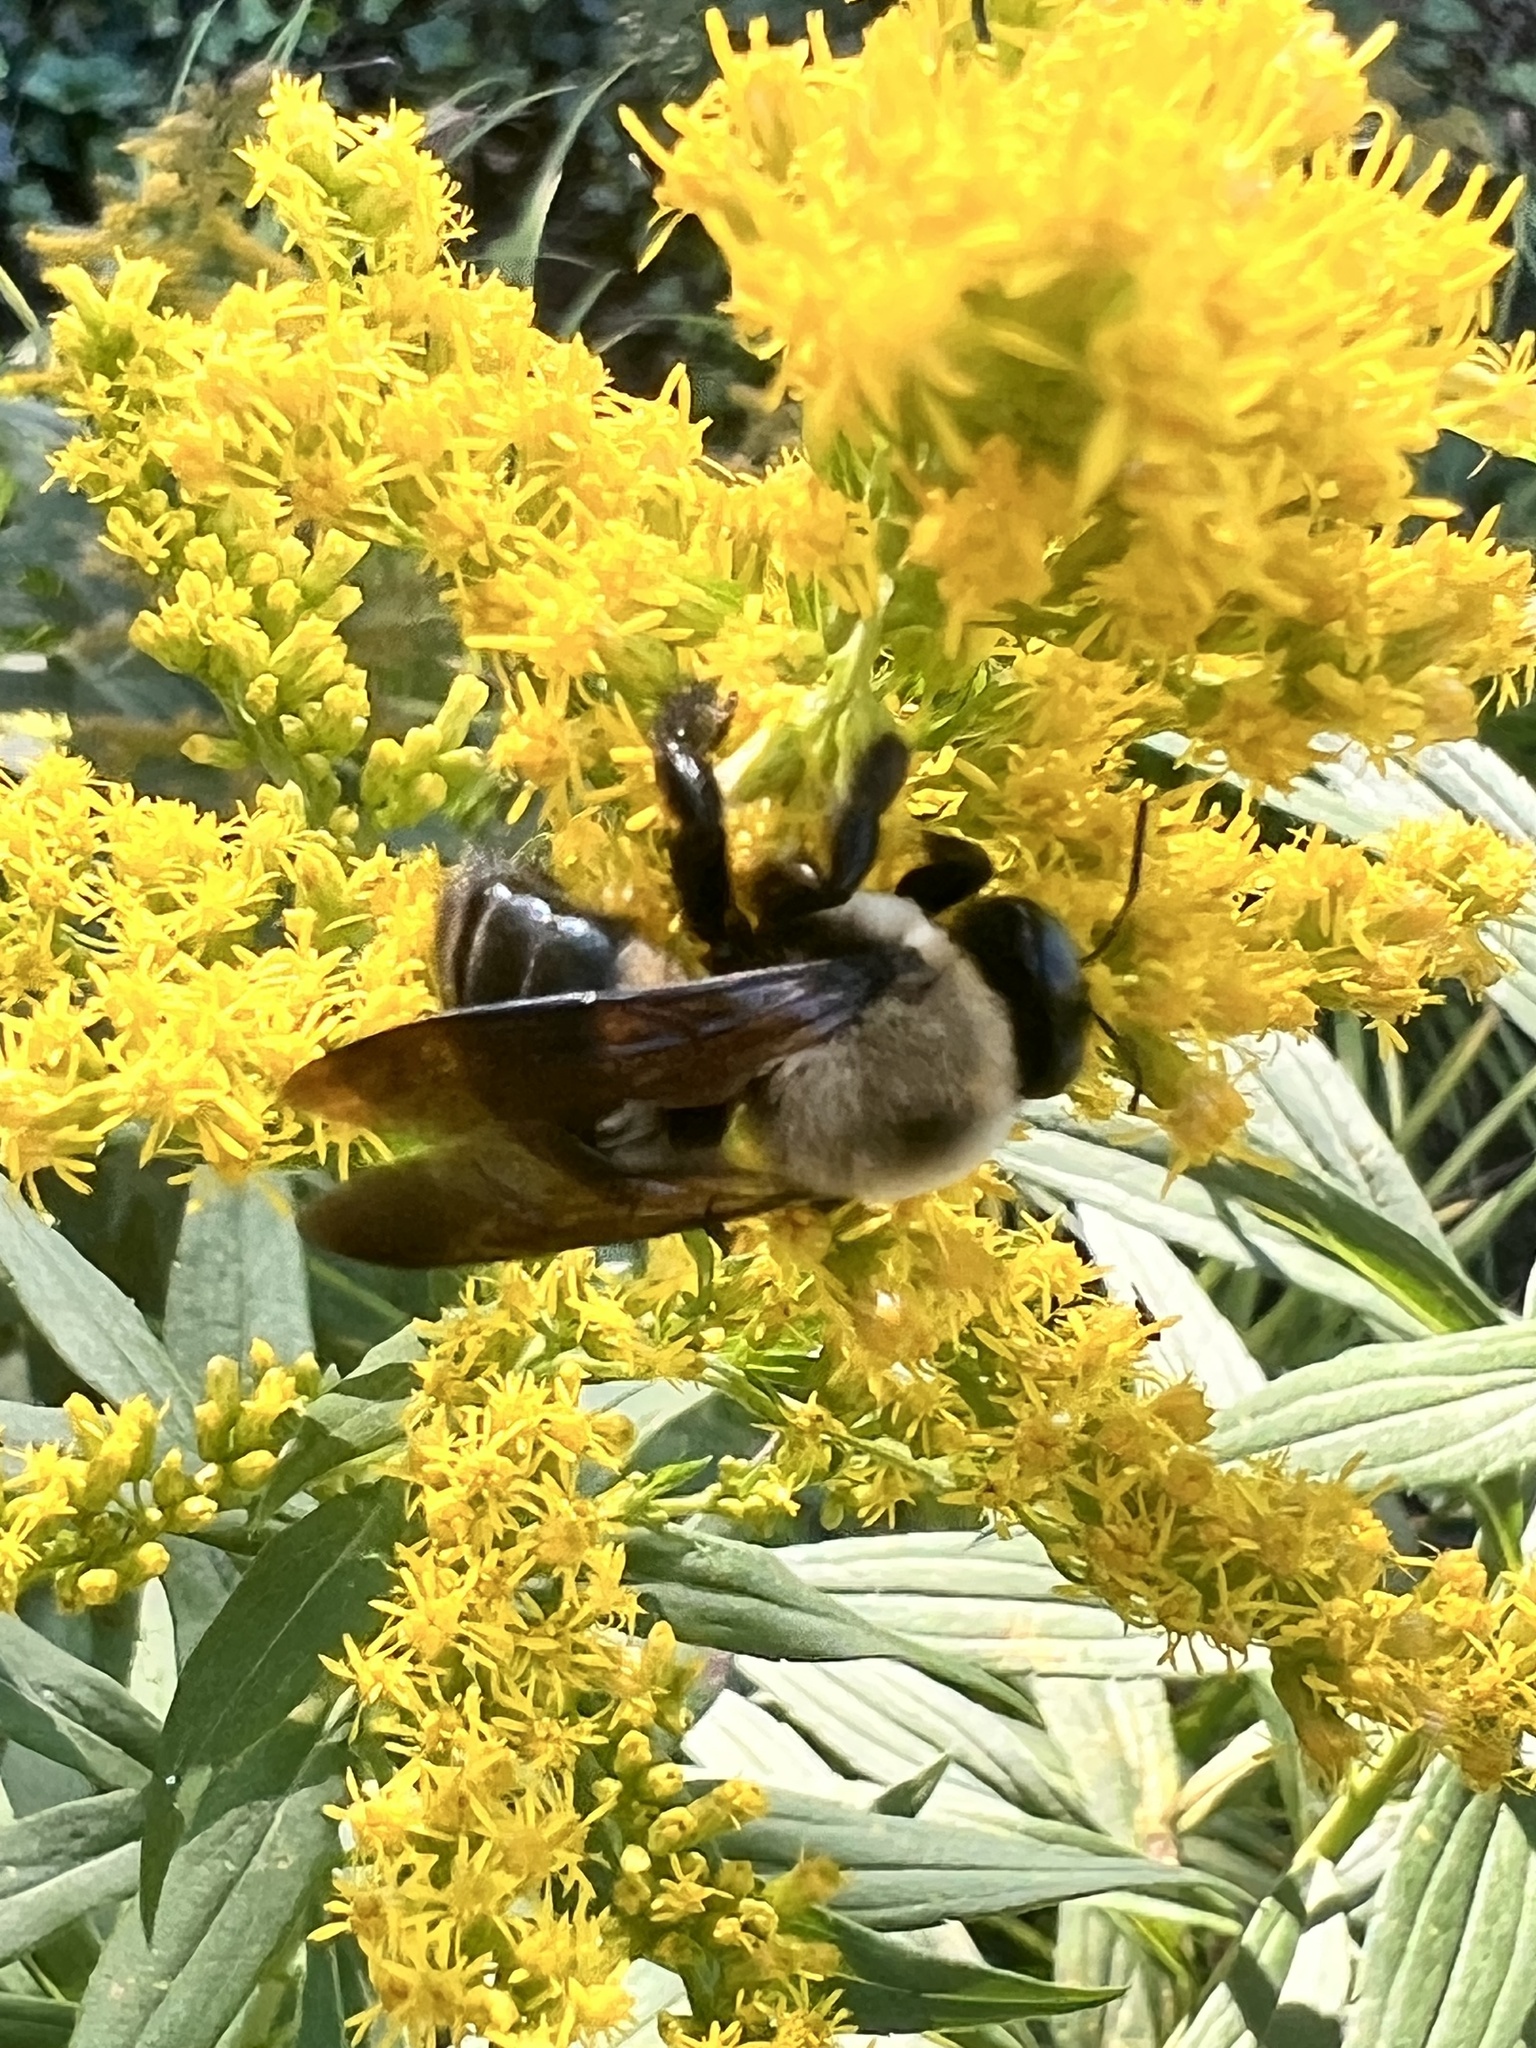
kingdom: Animalia
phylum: Arthropoda
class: Insecta
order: Hymenoptera
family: Apidae
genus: Xylocopa
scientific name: Xylocopa virginica
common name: Carpenter bee
